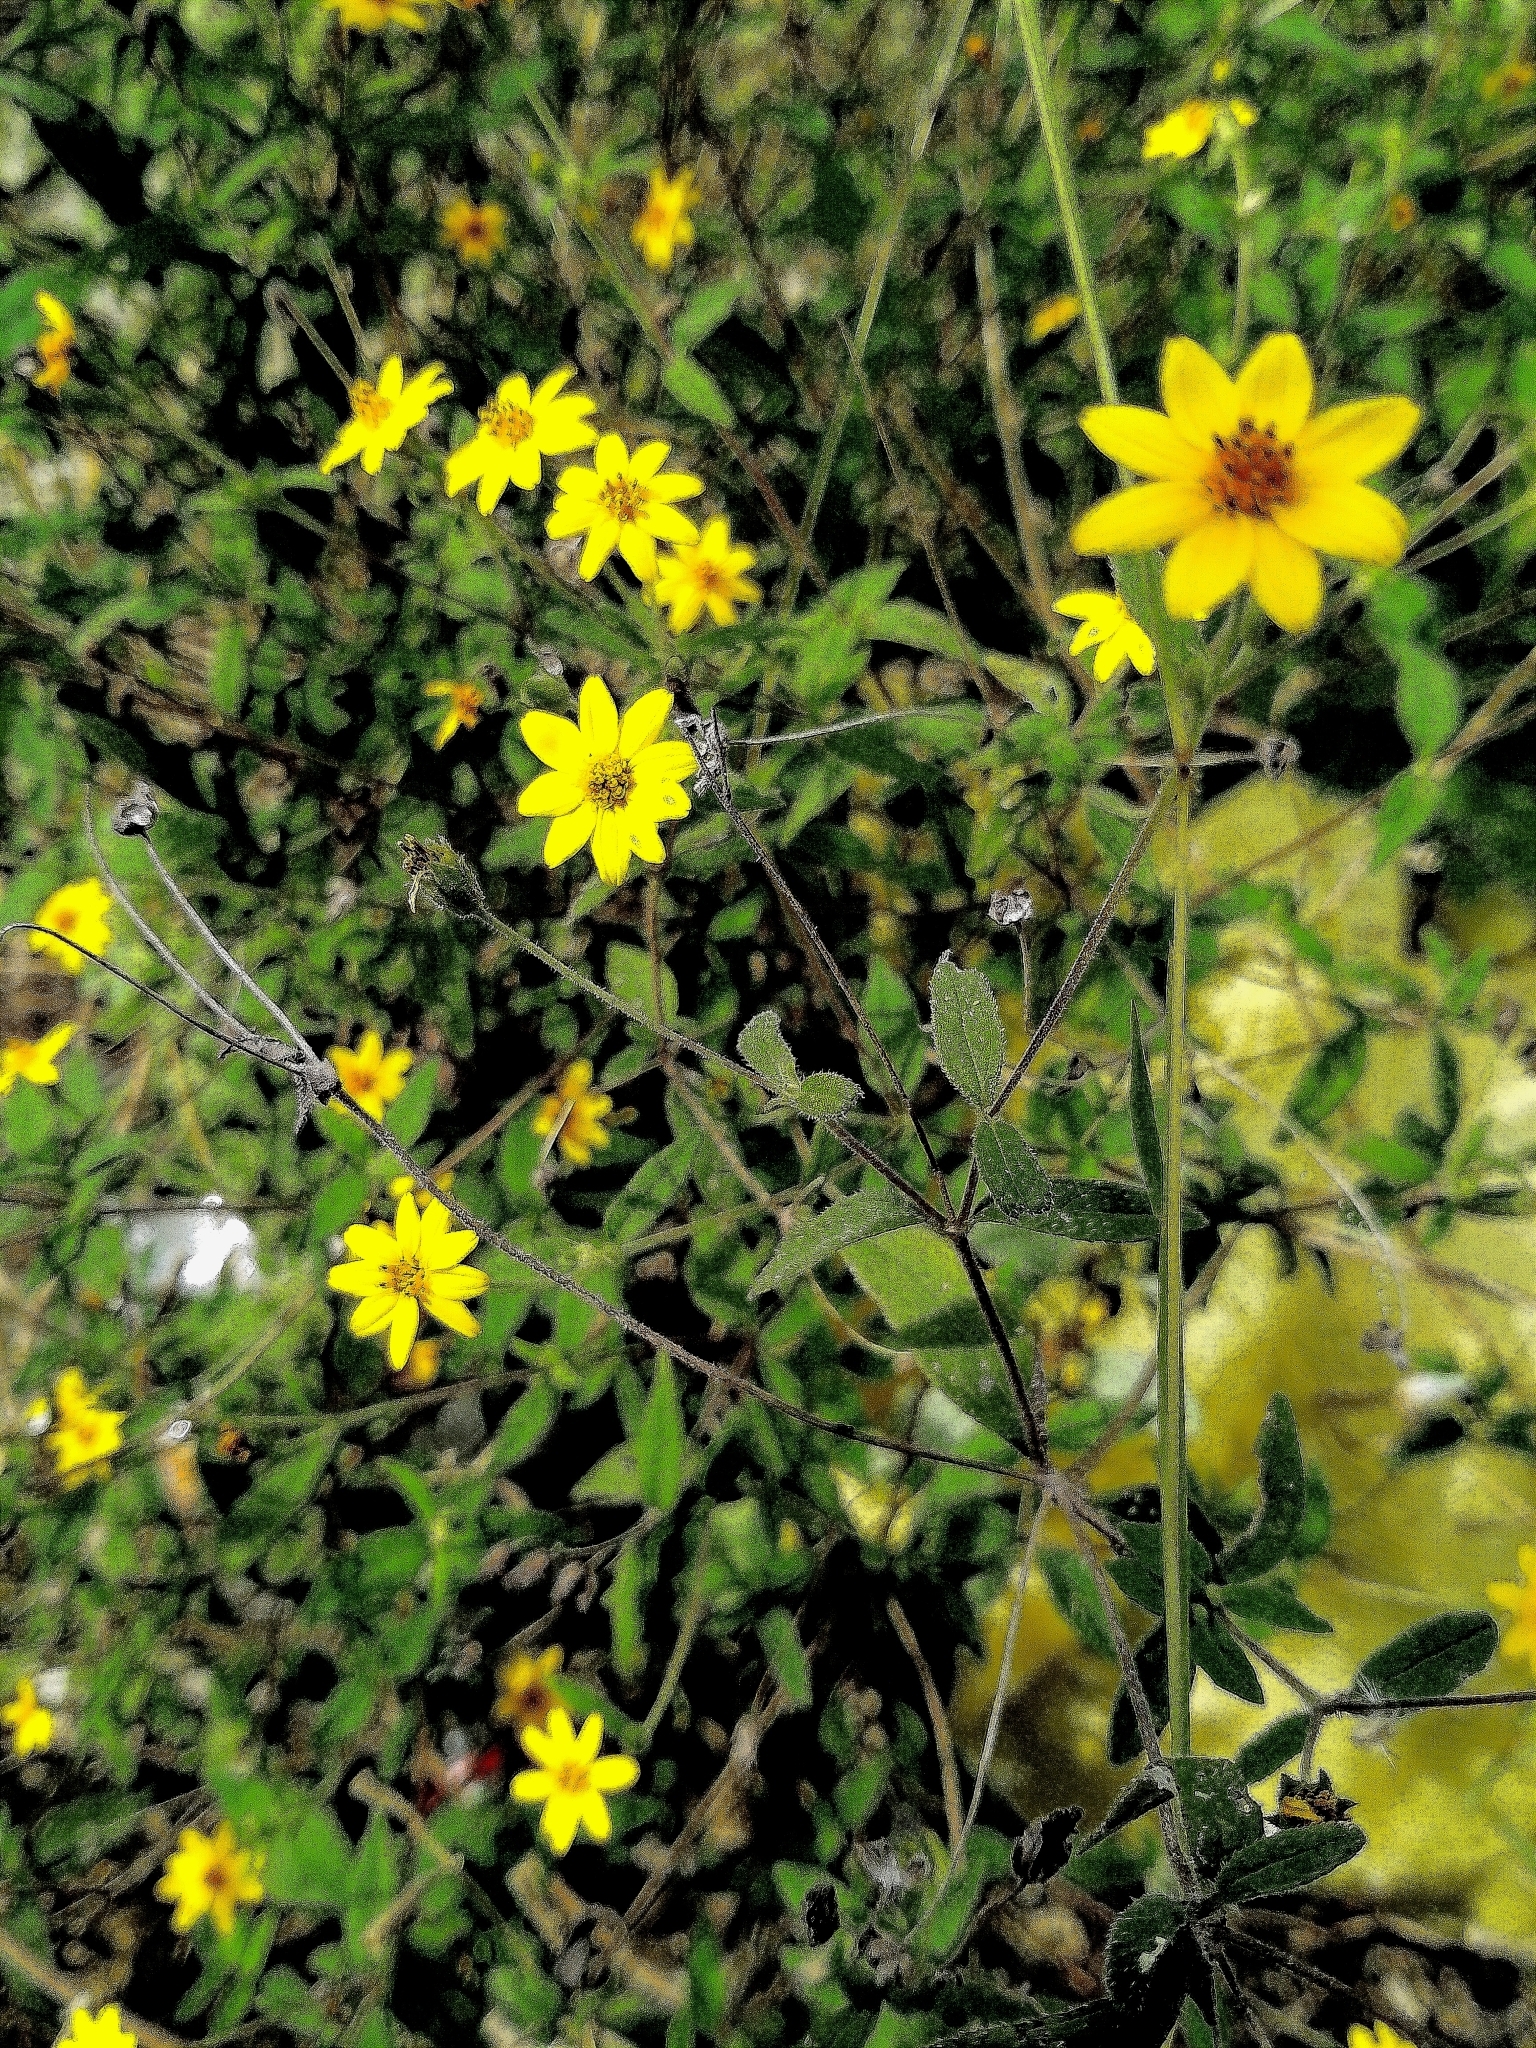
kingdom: Plantae
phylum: Tracheophyta
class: Magnoliopsida
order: Asterales
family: Asteraceae
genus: Wedelia
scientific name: Wedelia acapulcensis
